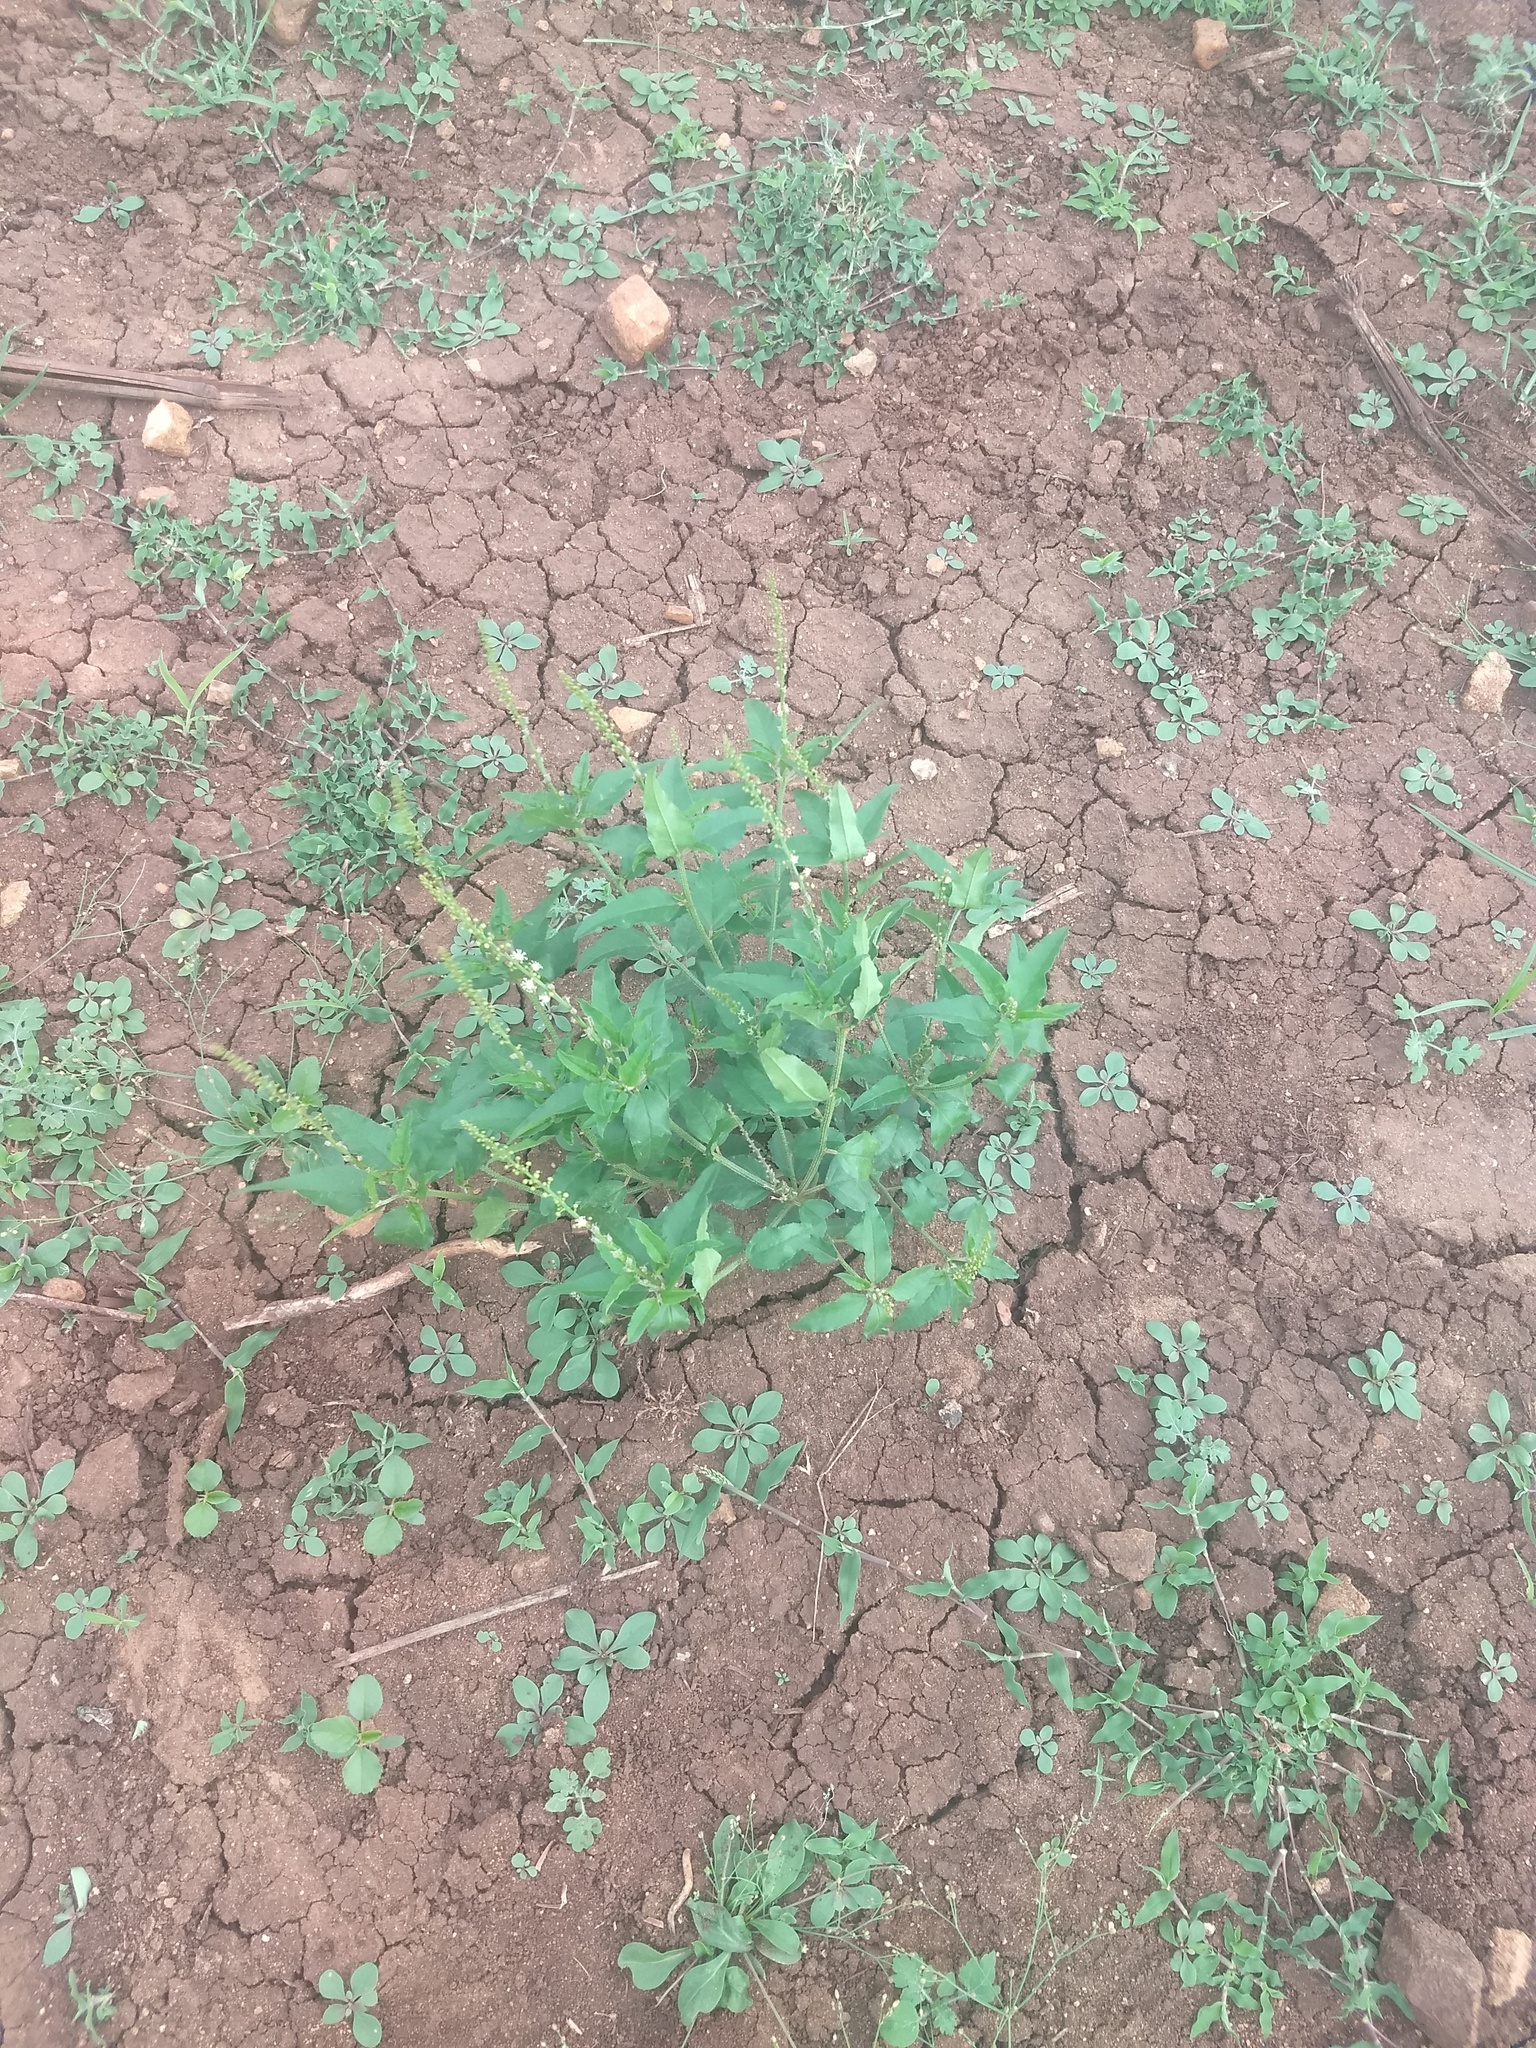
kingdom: Plantae
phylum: Tracheophyta
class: Magnoliopsida
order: Malpighiales
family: Euphorbiaceae
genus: Croton
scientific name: Croton bonplandianus
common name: Bonpland's croton
